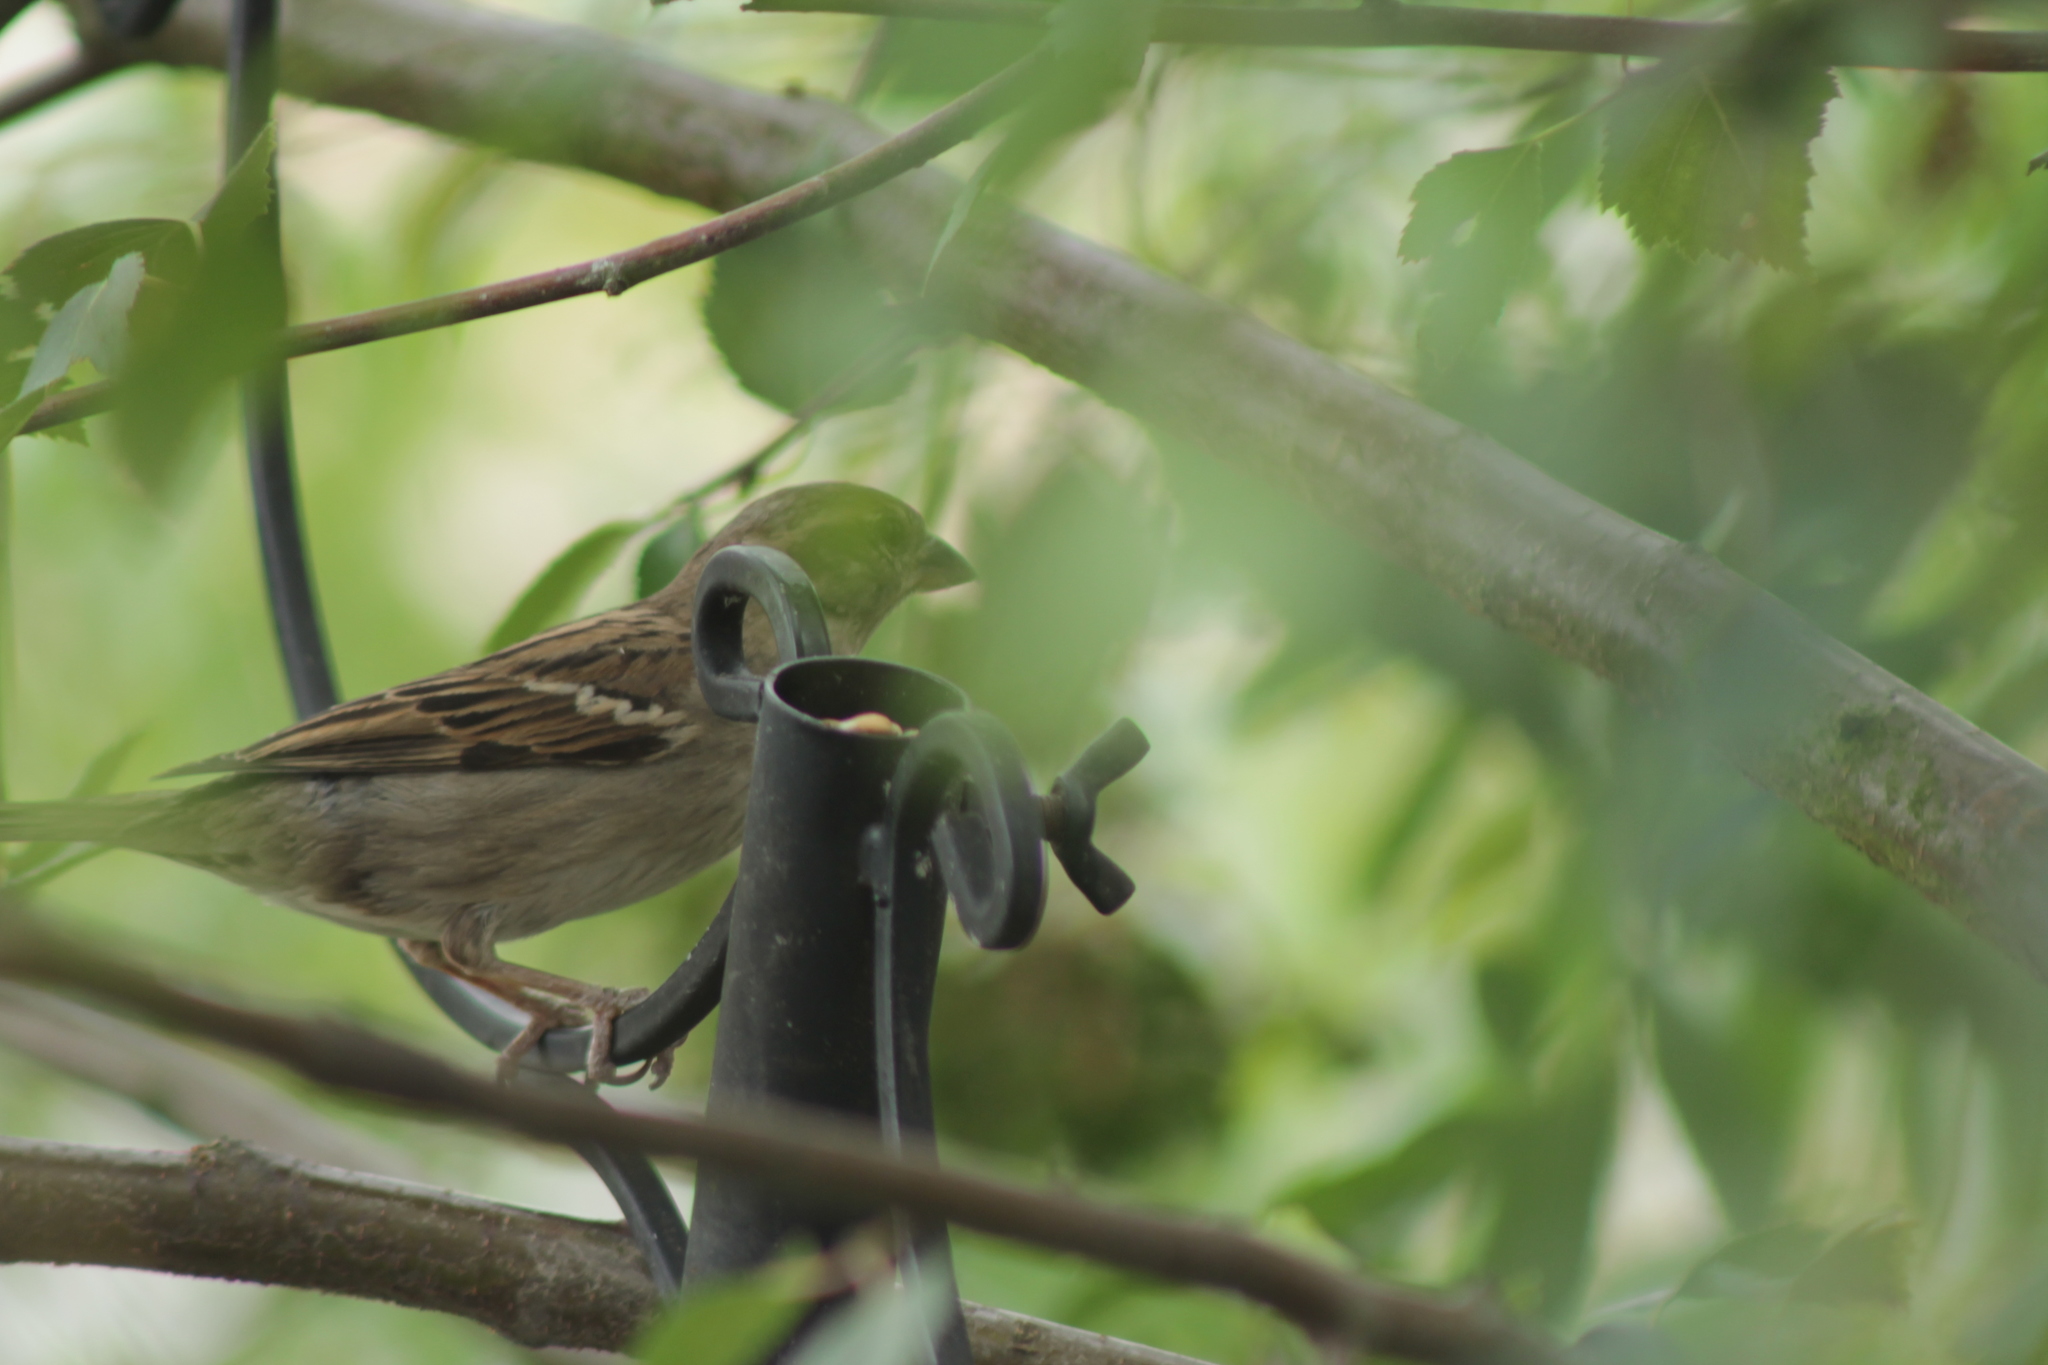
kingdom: Animalia
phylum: Chordata
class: Aves
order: Passeriformes
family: Passeridae
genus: Passer
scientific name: Passer domesticus
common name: House sparrow
